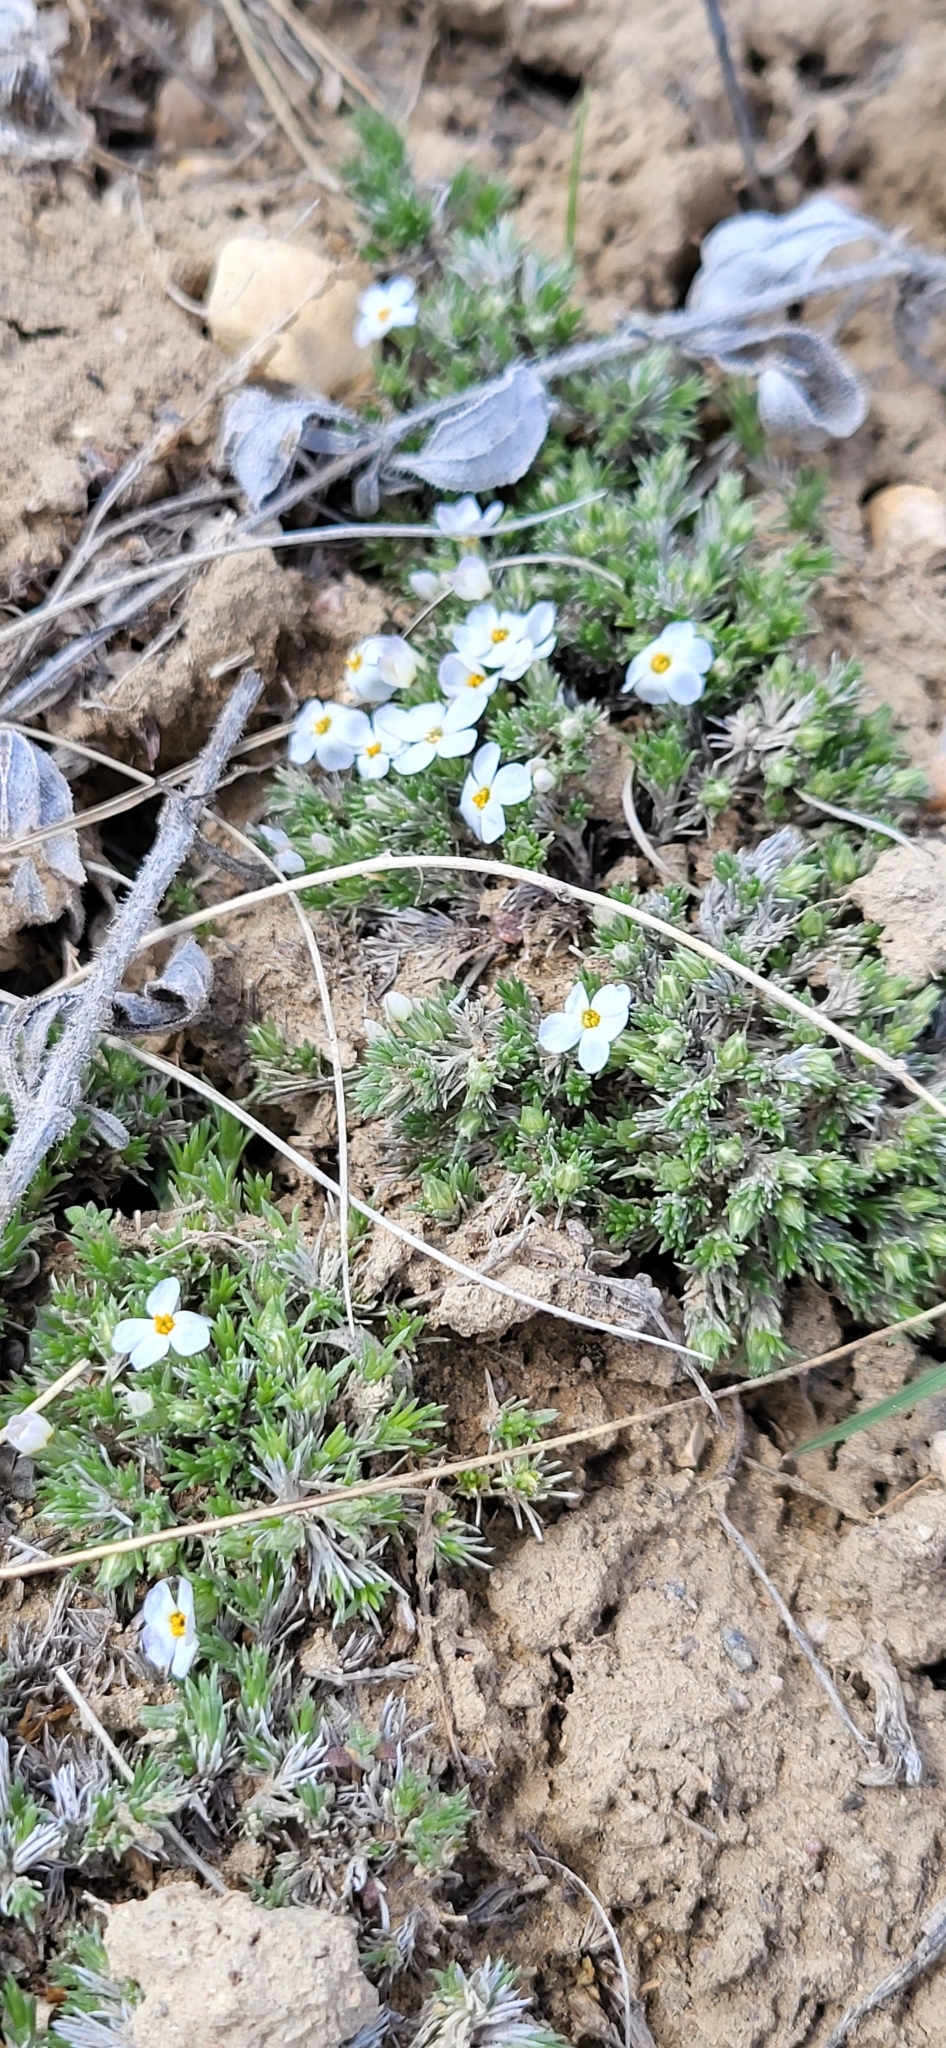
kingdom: Plantae
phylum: Tracheophyta
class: Magnoliopsida
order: Ericales
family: Polemoniaceae
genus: Phlox
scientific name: Phlox hoodii
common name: Moss phlox
